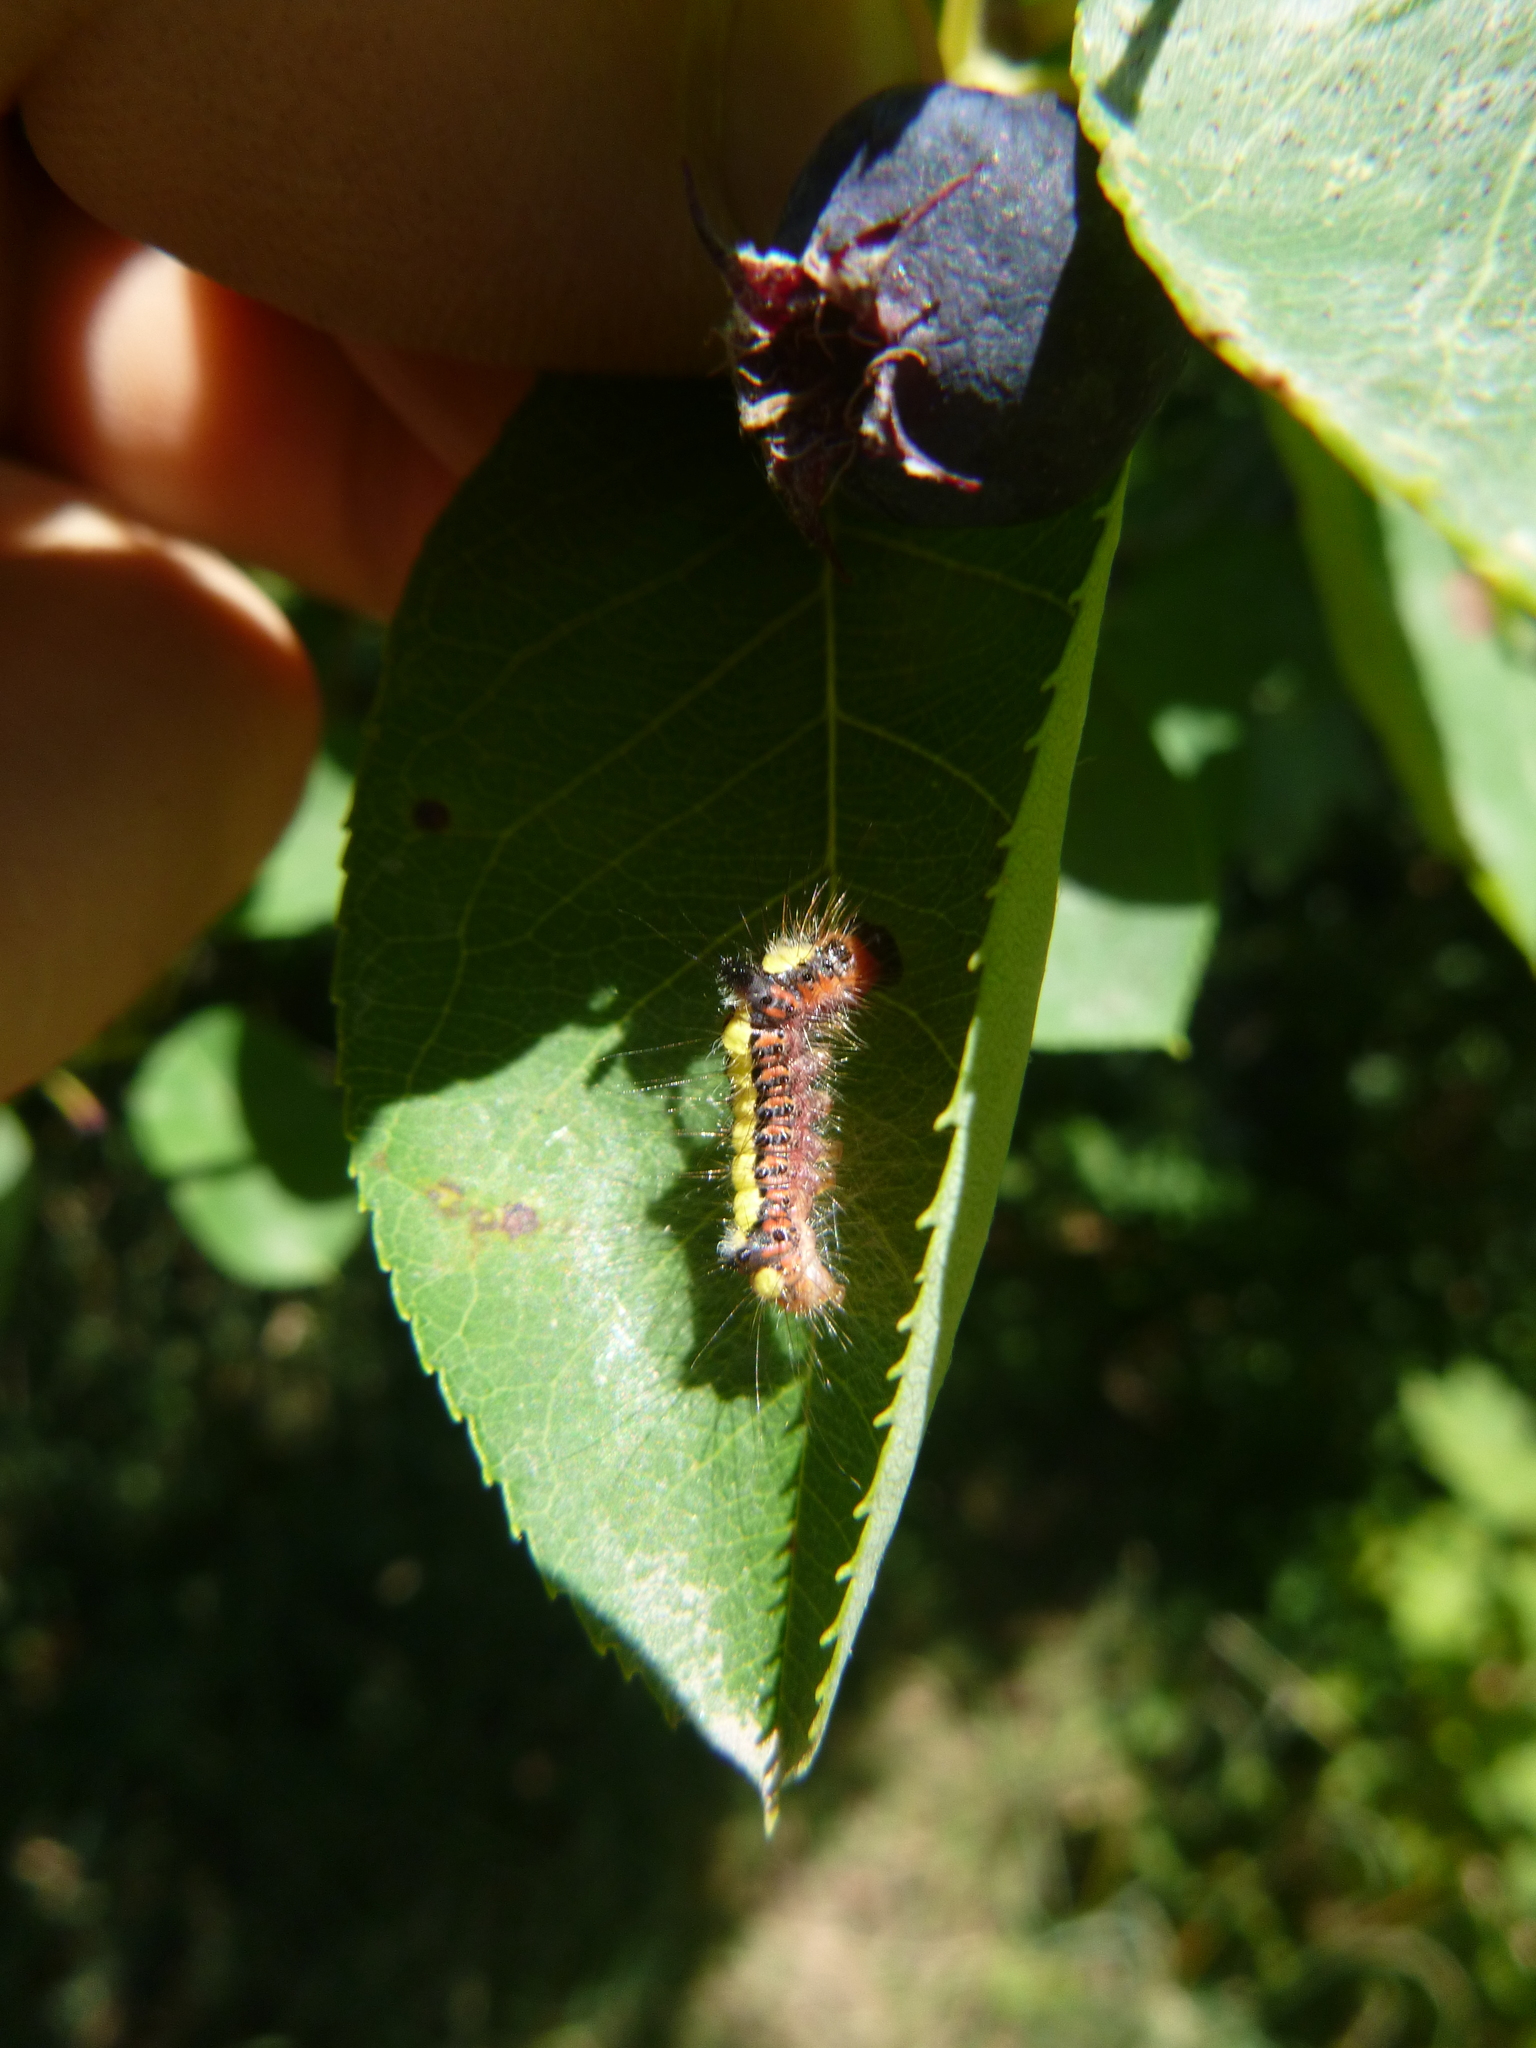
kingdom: Animalia
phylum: Arthropoda
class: Insecta
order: Lepidoptera
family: Noctuidae
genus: Acronicta
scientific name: Acronicta psi
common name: Grey dagger
